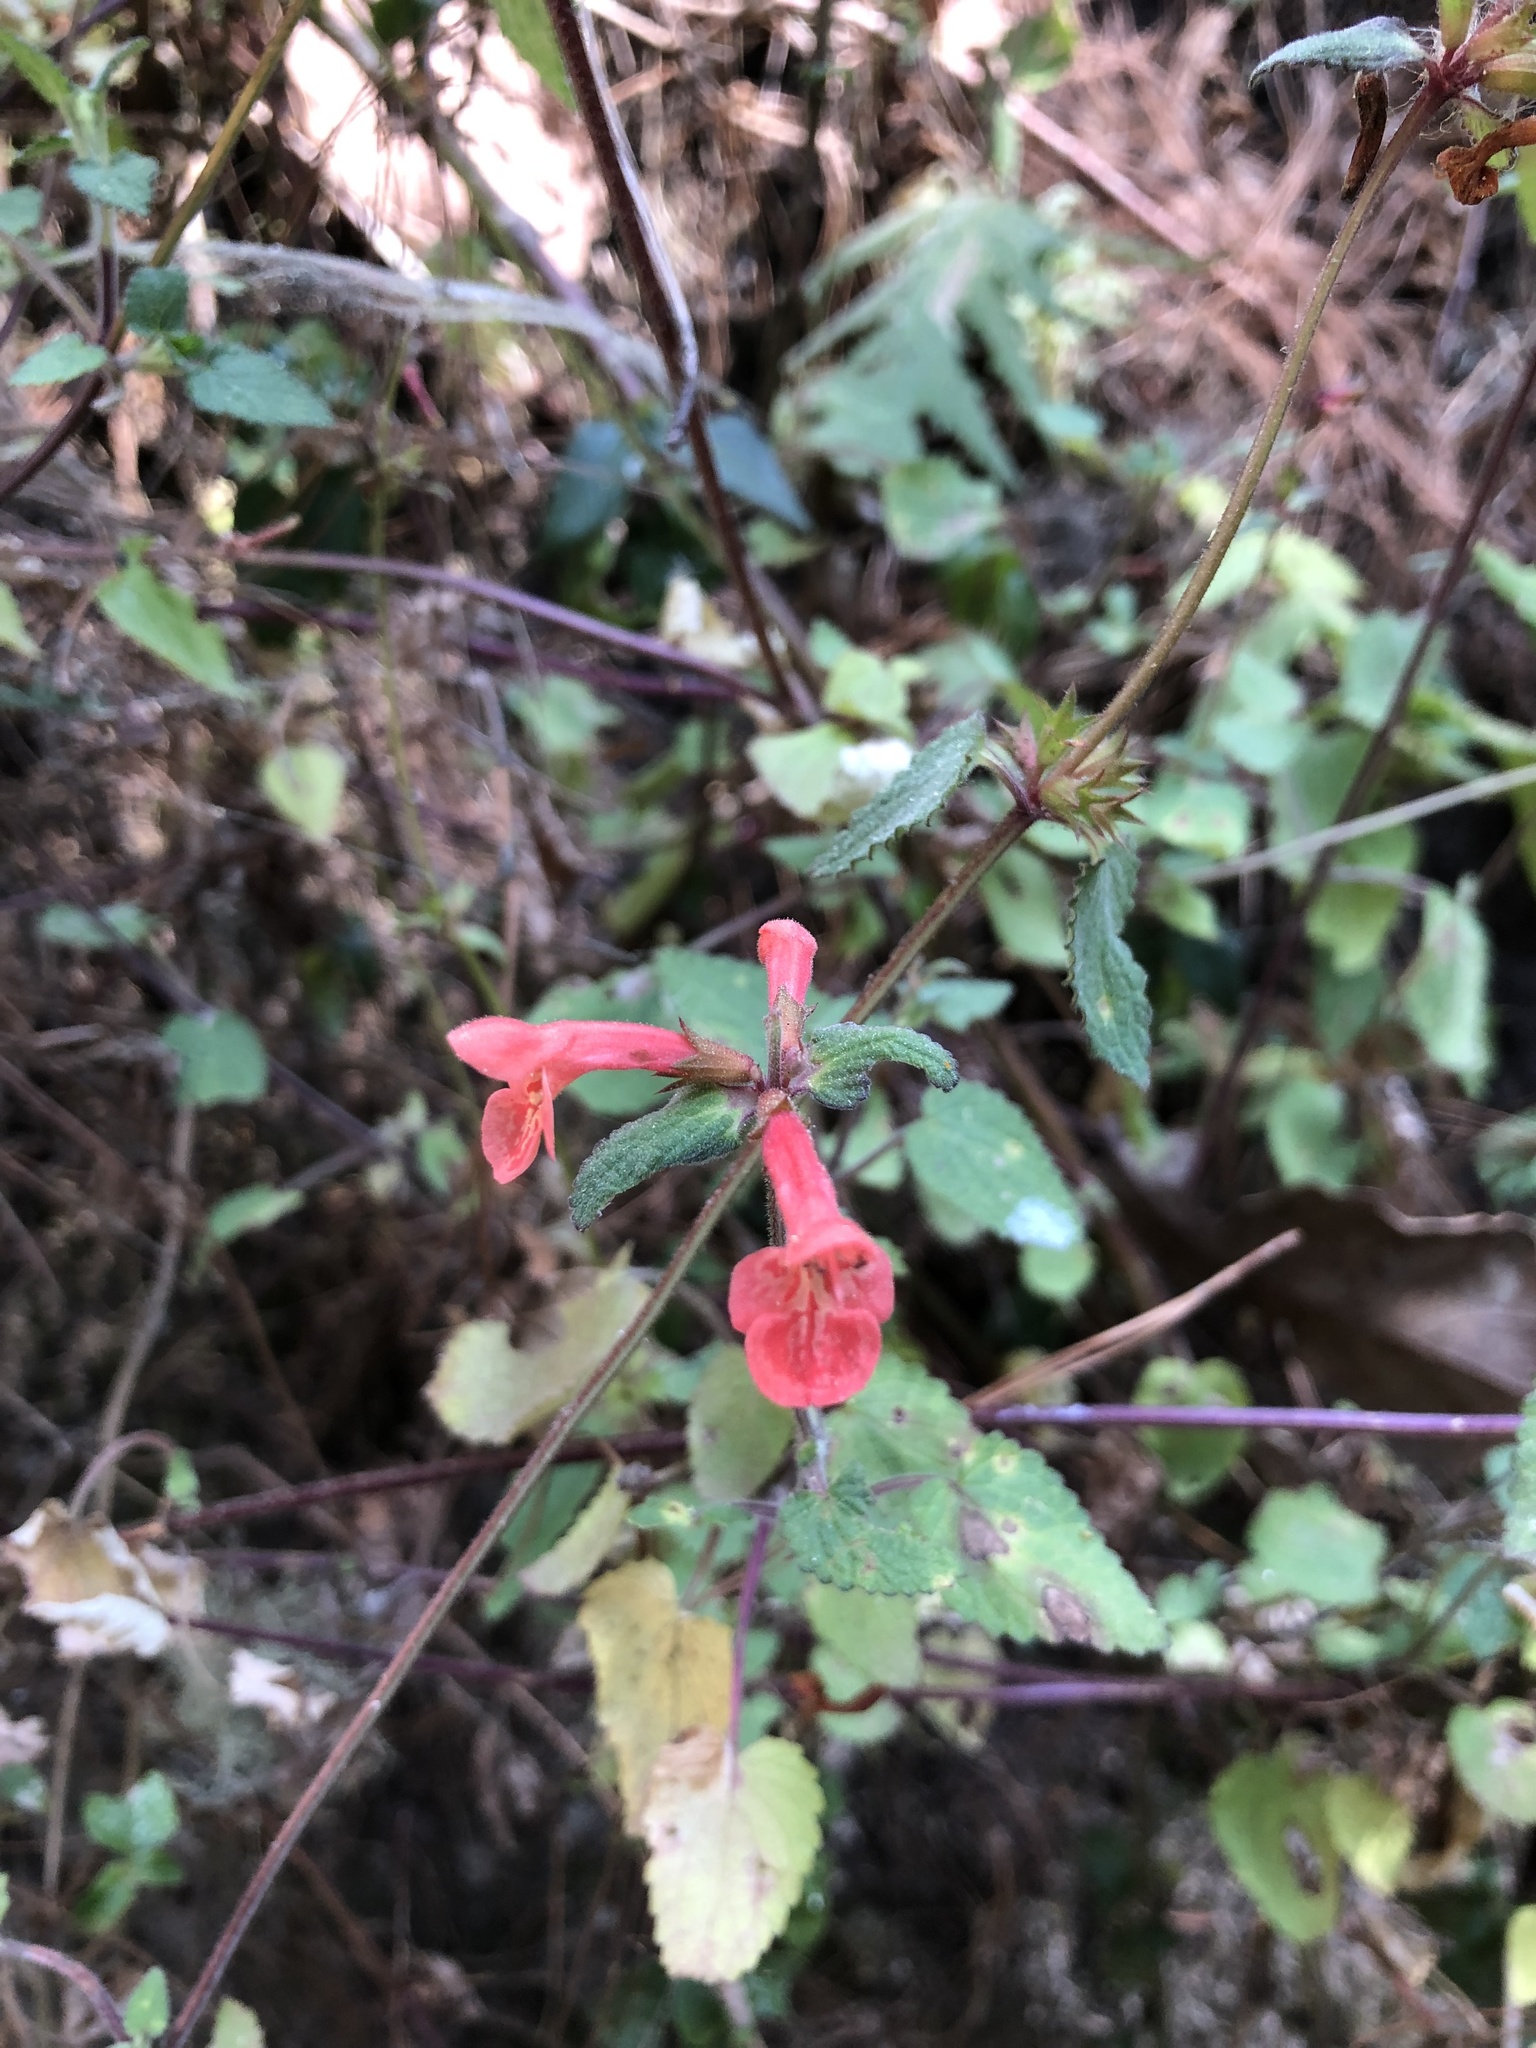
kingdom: Plantae
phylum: Tracheophyta
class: Magnoliopsida
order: Lamiales
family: Lamiaceae
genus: Stachys
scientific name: Stachys coccinea
